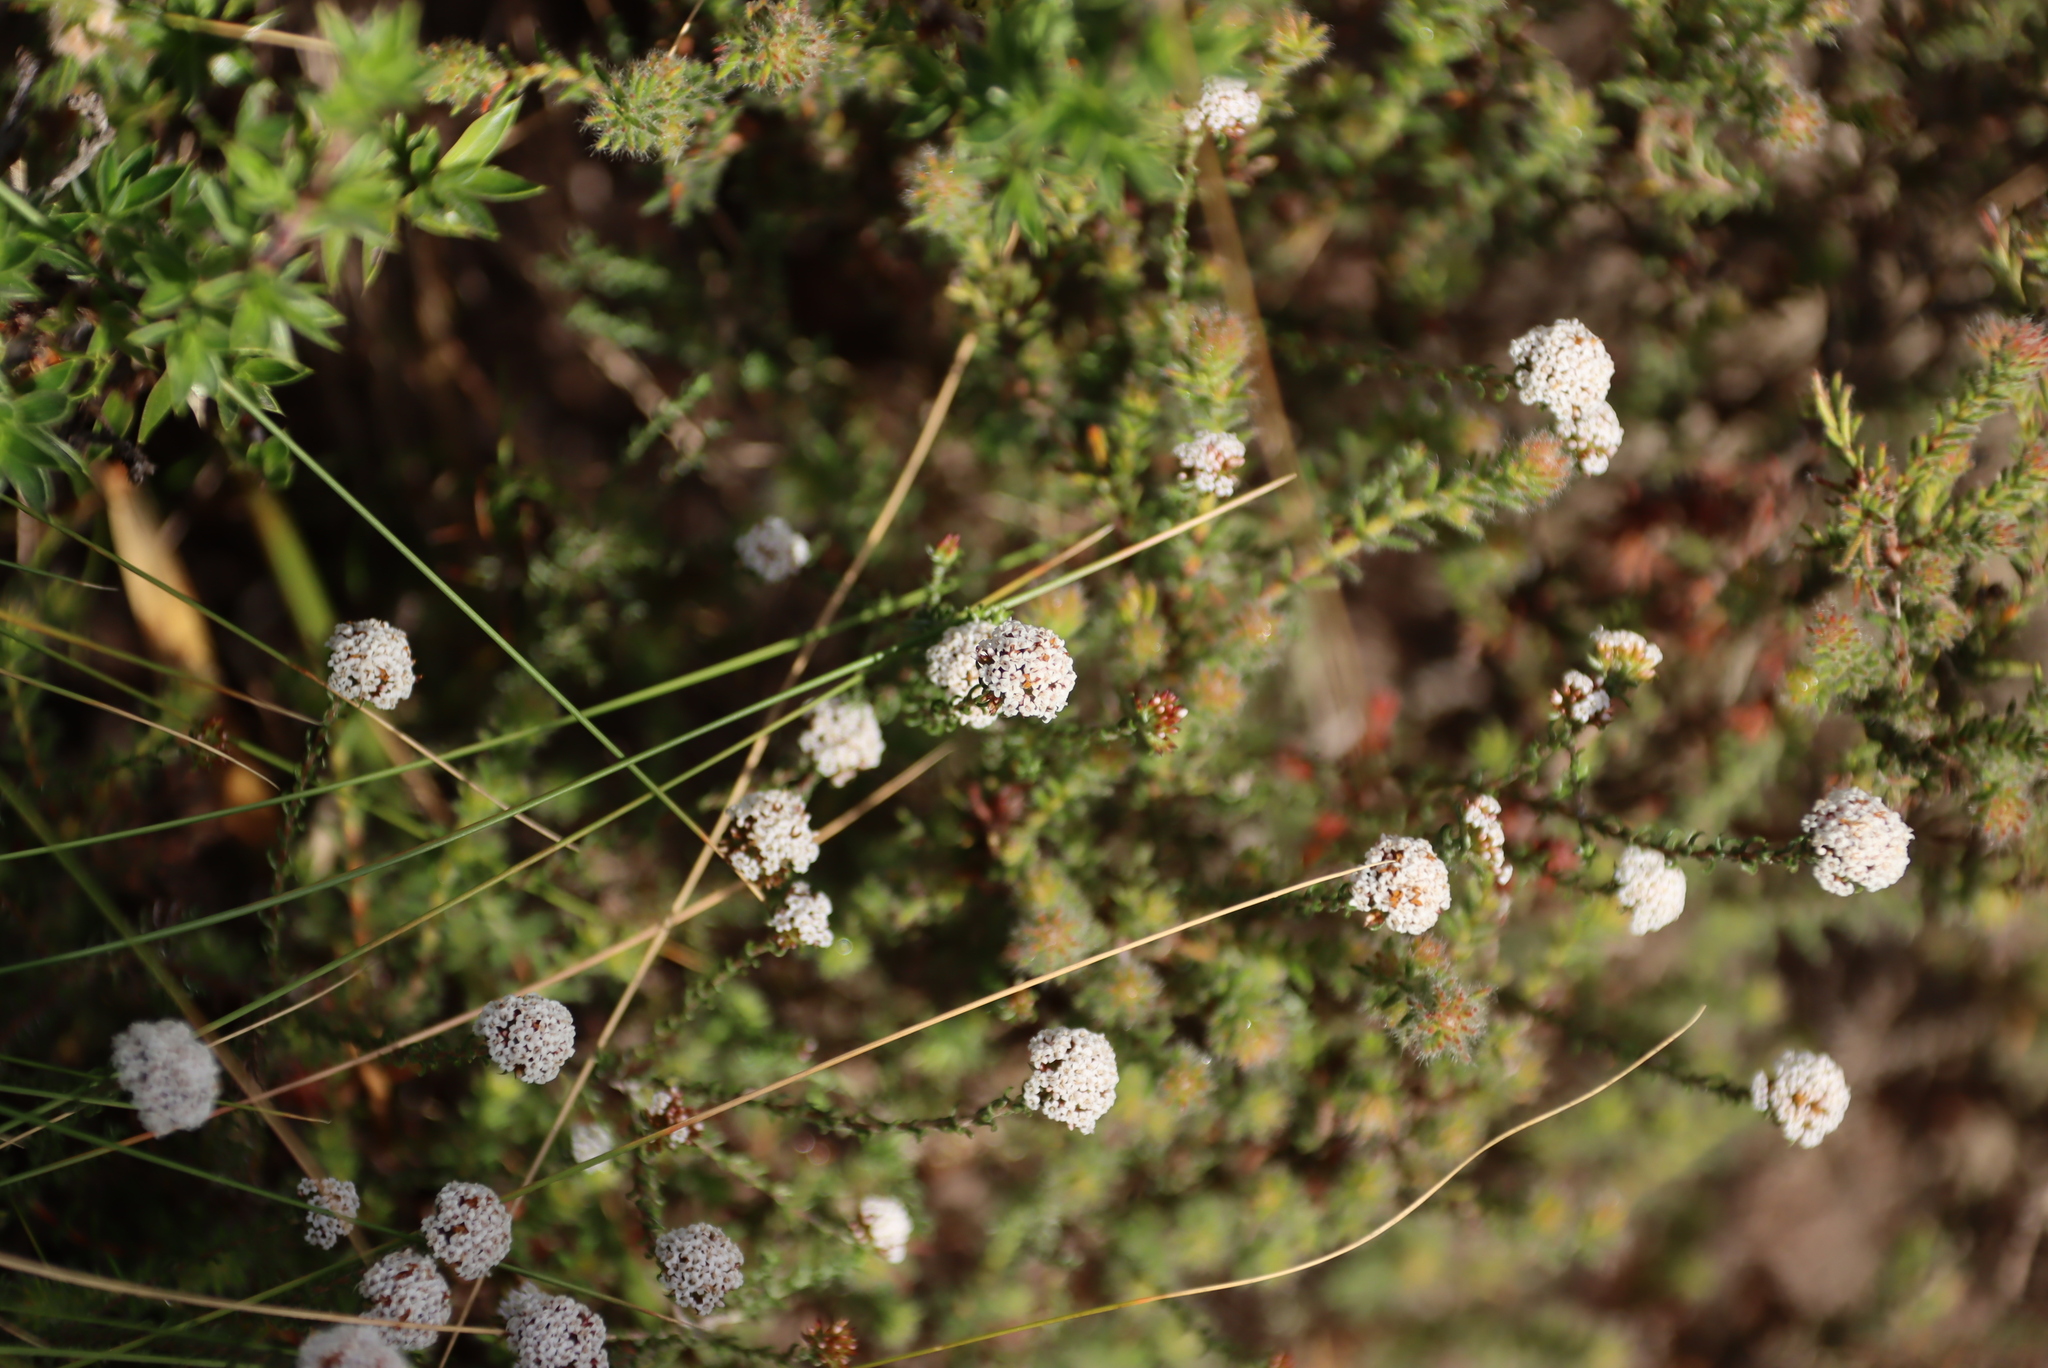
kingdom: Plantae
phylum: Tracheophyta
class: Magnoliopsida
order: Asterales
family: Asteraceae
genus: Stoebe
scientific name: Stoebe capitata
